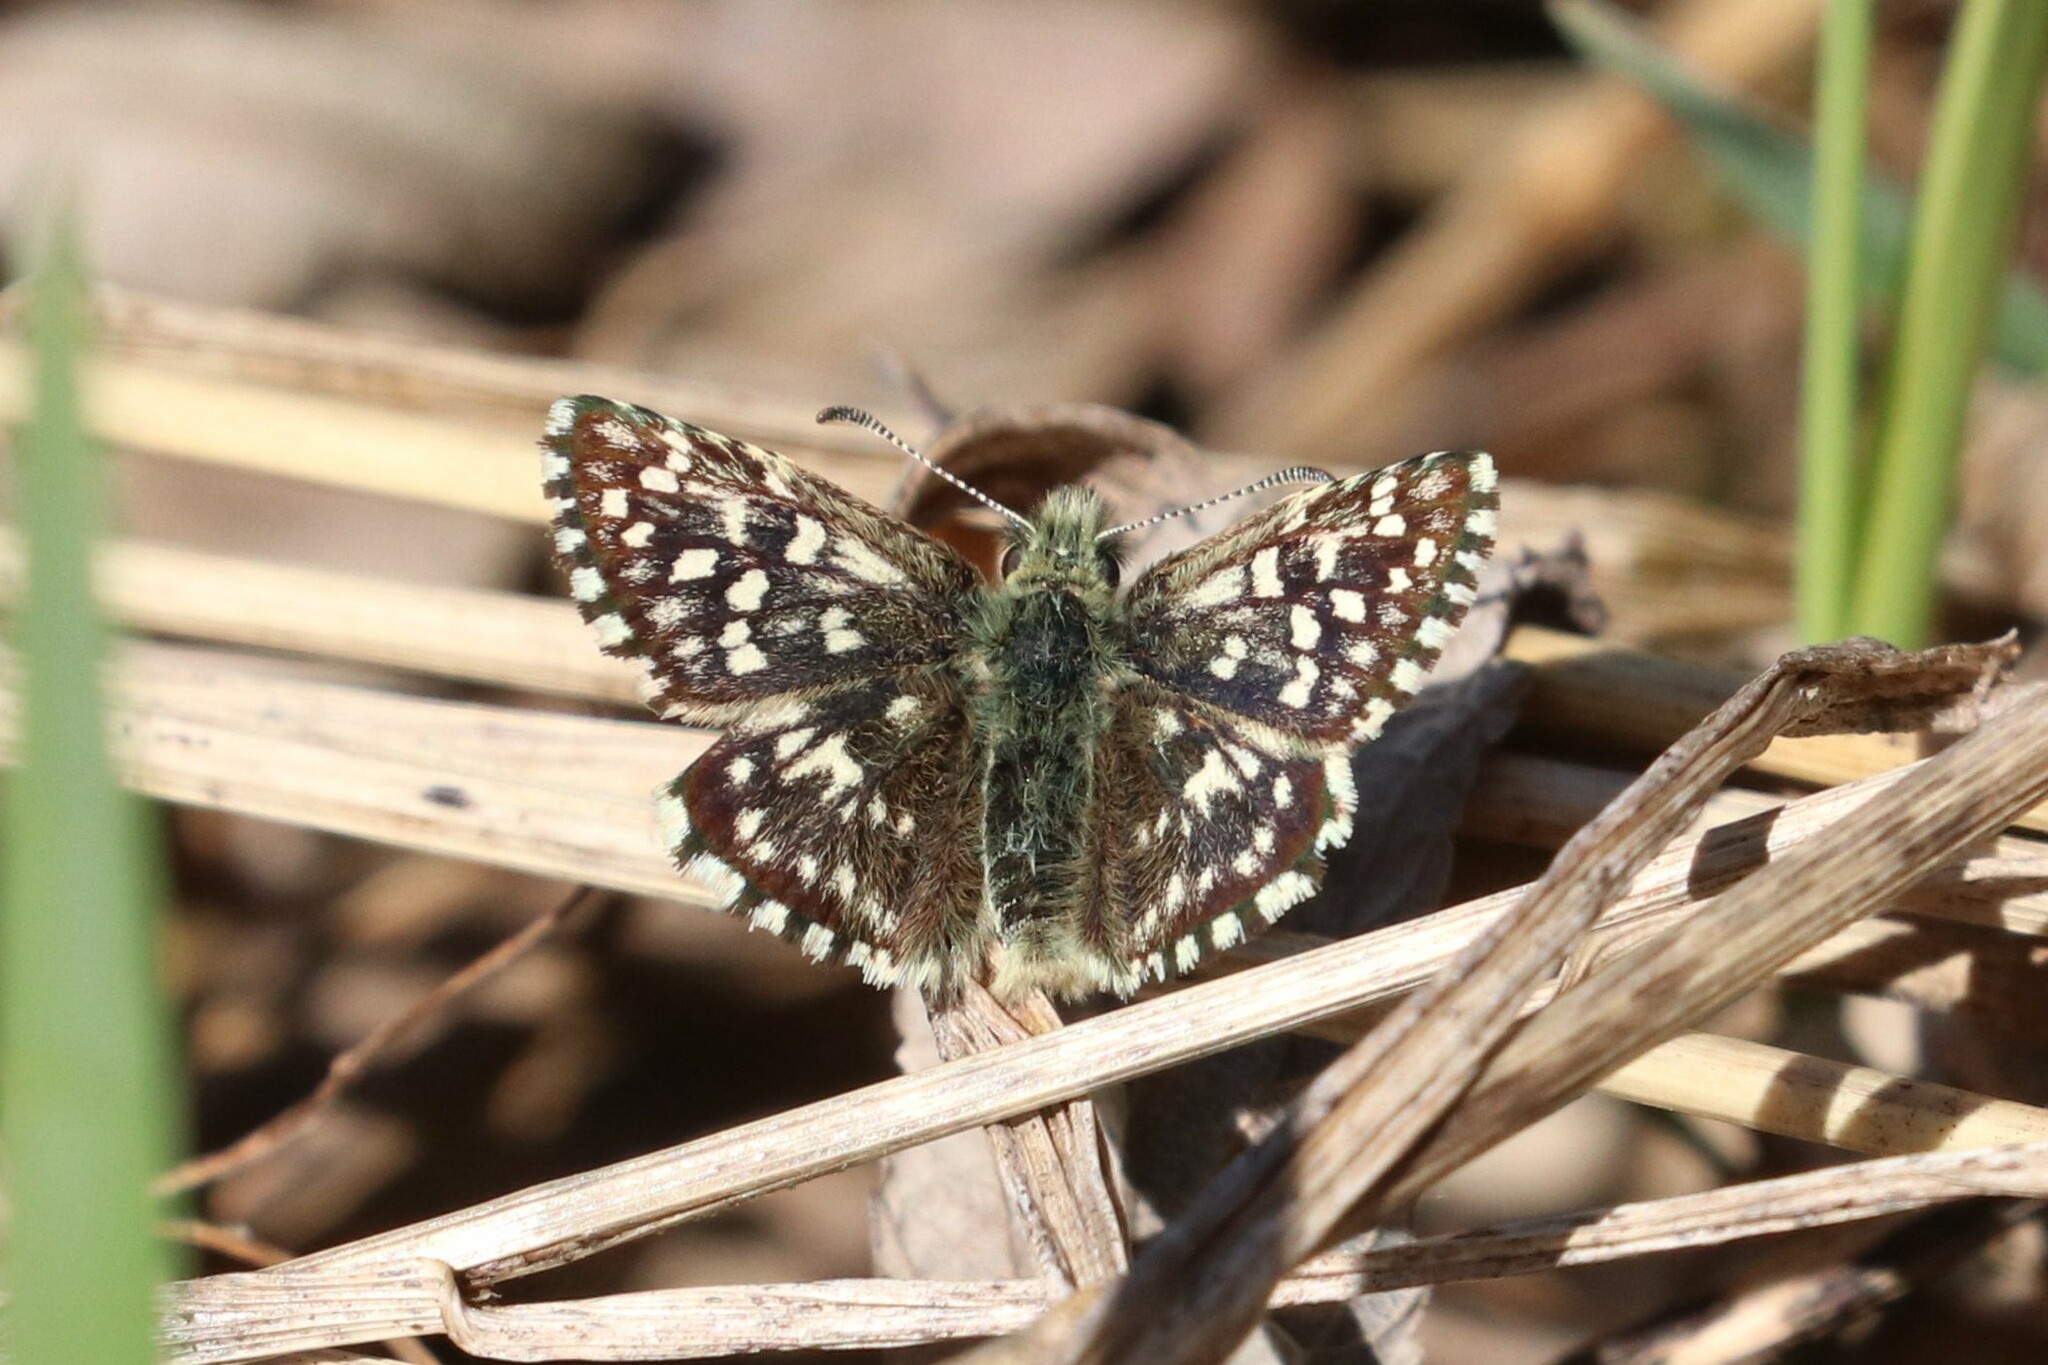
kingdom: Animalia
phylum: Arthropoda
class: Insecta
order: Lepidoptera
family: Hesperiidae
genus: Pyrgus
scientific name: Pyrgus malvae
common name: Grizzled skipper
